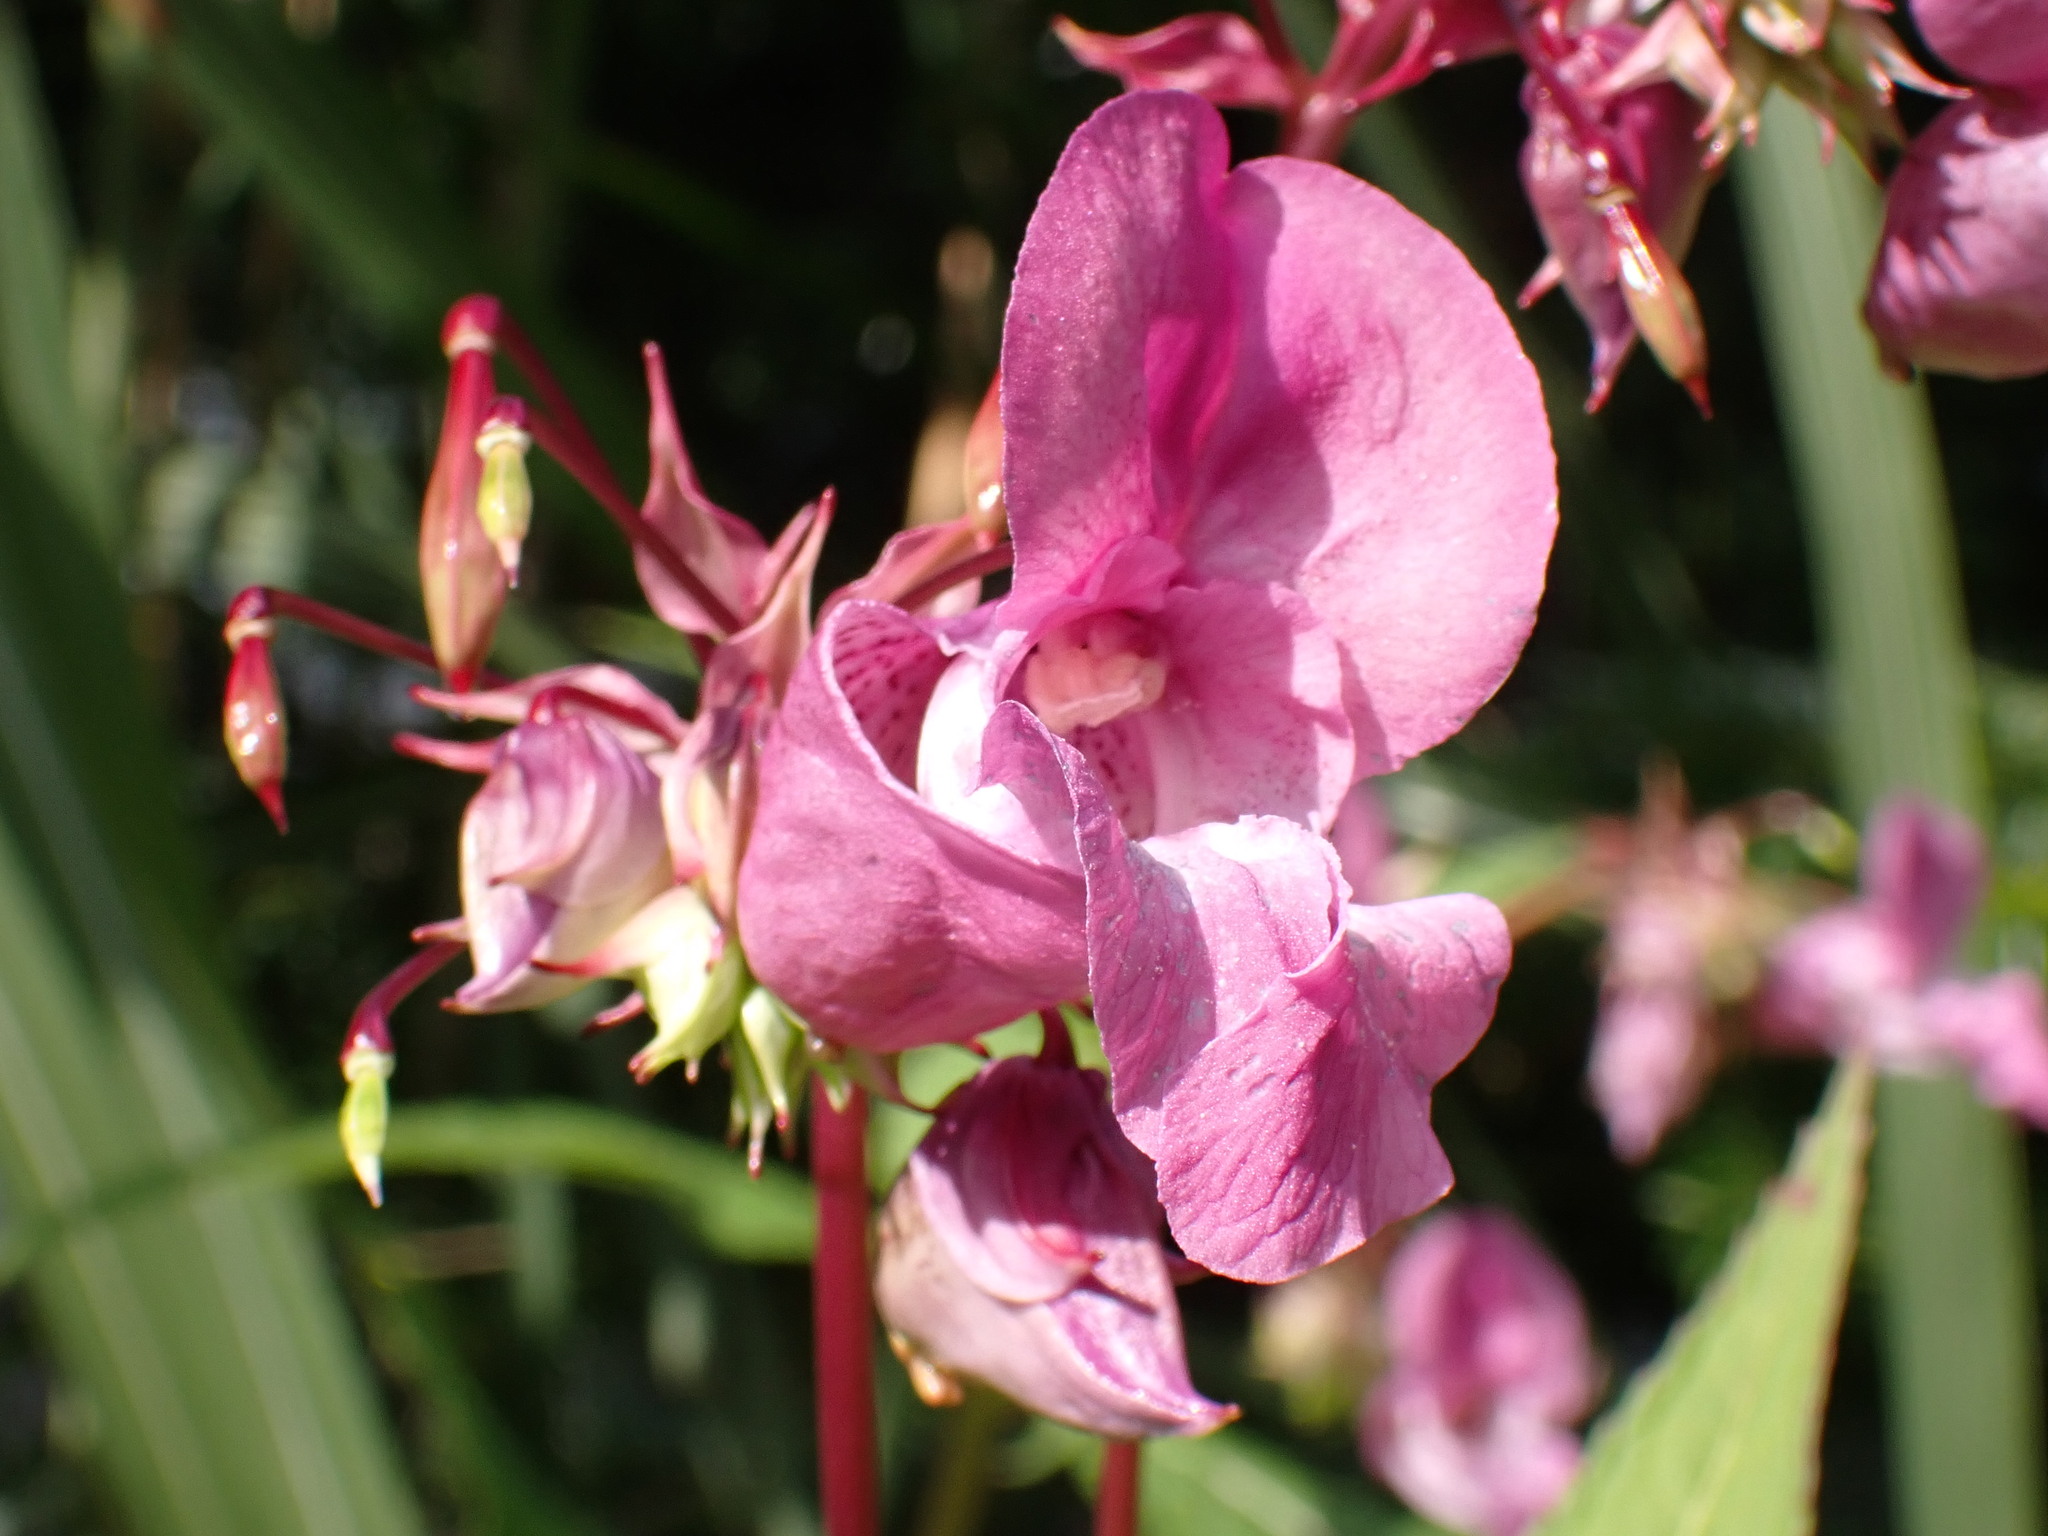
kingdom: Plantae
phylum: Tracheophyta
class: Magnoliopsida
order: Ericales
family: Balsaminaceae
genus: Impatiens
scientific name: Impatiens glandulifera
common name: Himalayan balsam
